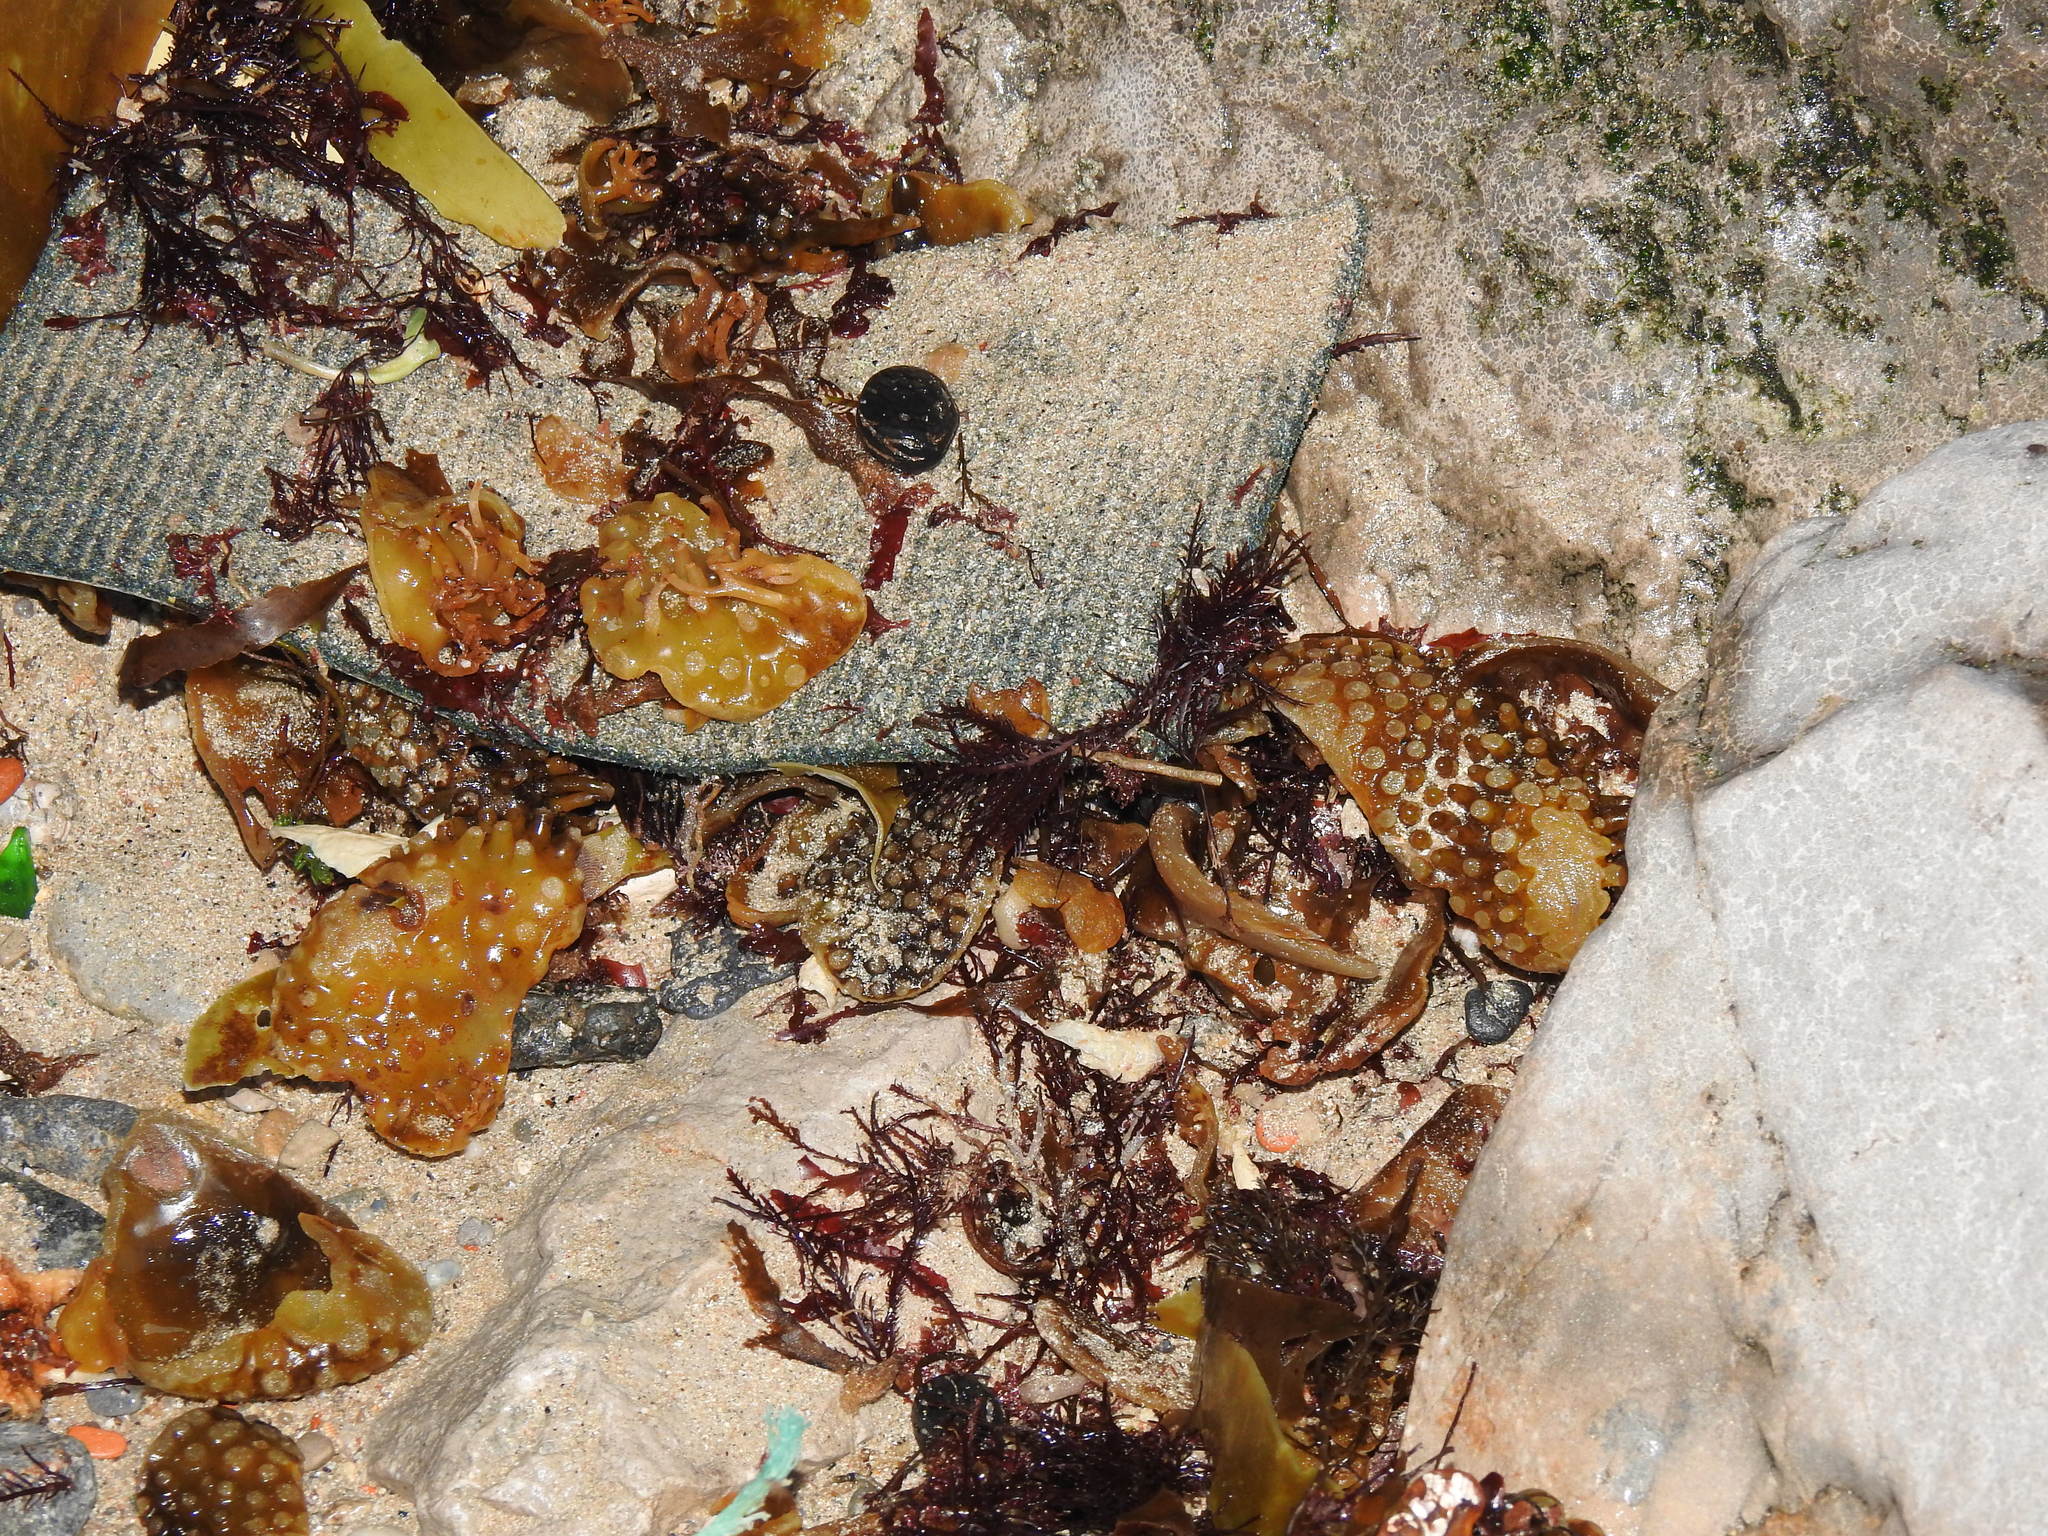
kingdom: Chromista
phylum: Ochrophyta
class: Phaeophyceae
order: Tilopteridales
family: Phyllariaceae
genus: Saccorhiza
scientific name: Saccorhiza polyschides
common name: Furbelows
